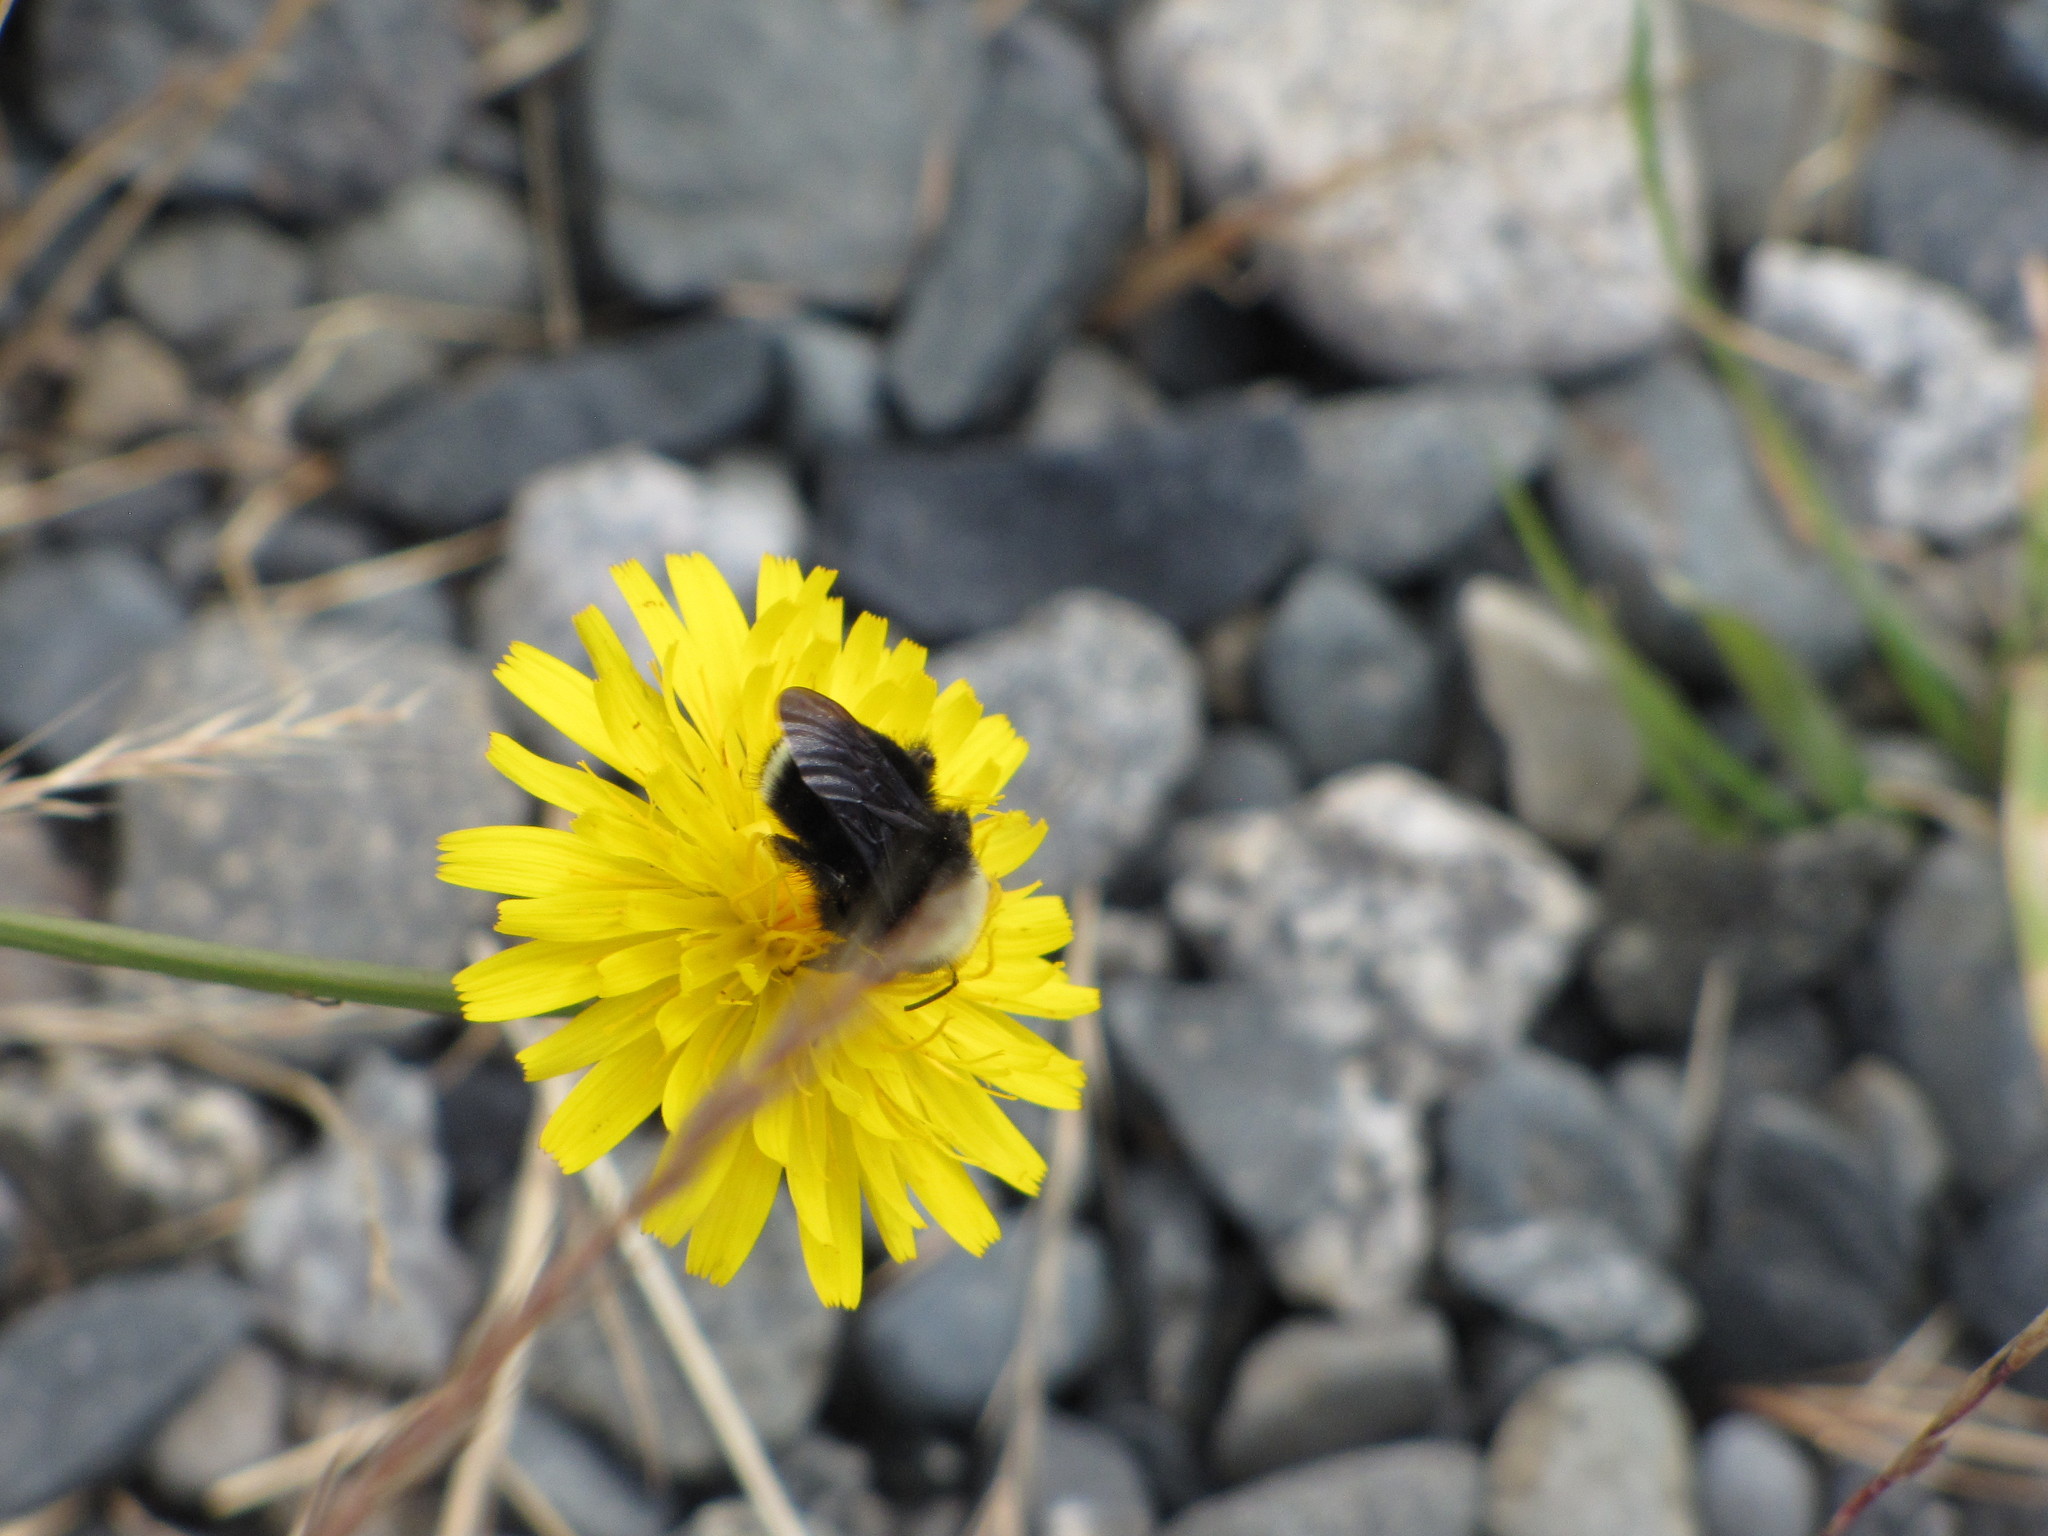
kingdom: Animalia
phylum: Arthropoda
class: Insecta
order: Hymenoptera
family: Apidae
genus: Bombus
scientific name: Bombus vosnesenskii
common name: Vosnesensky bumble bee
